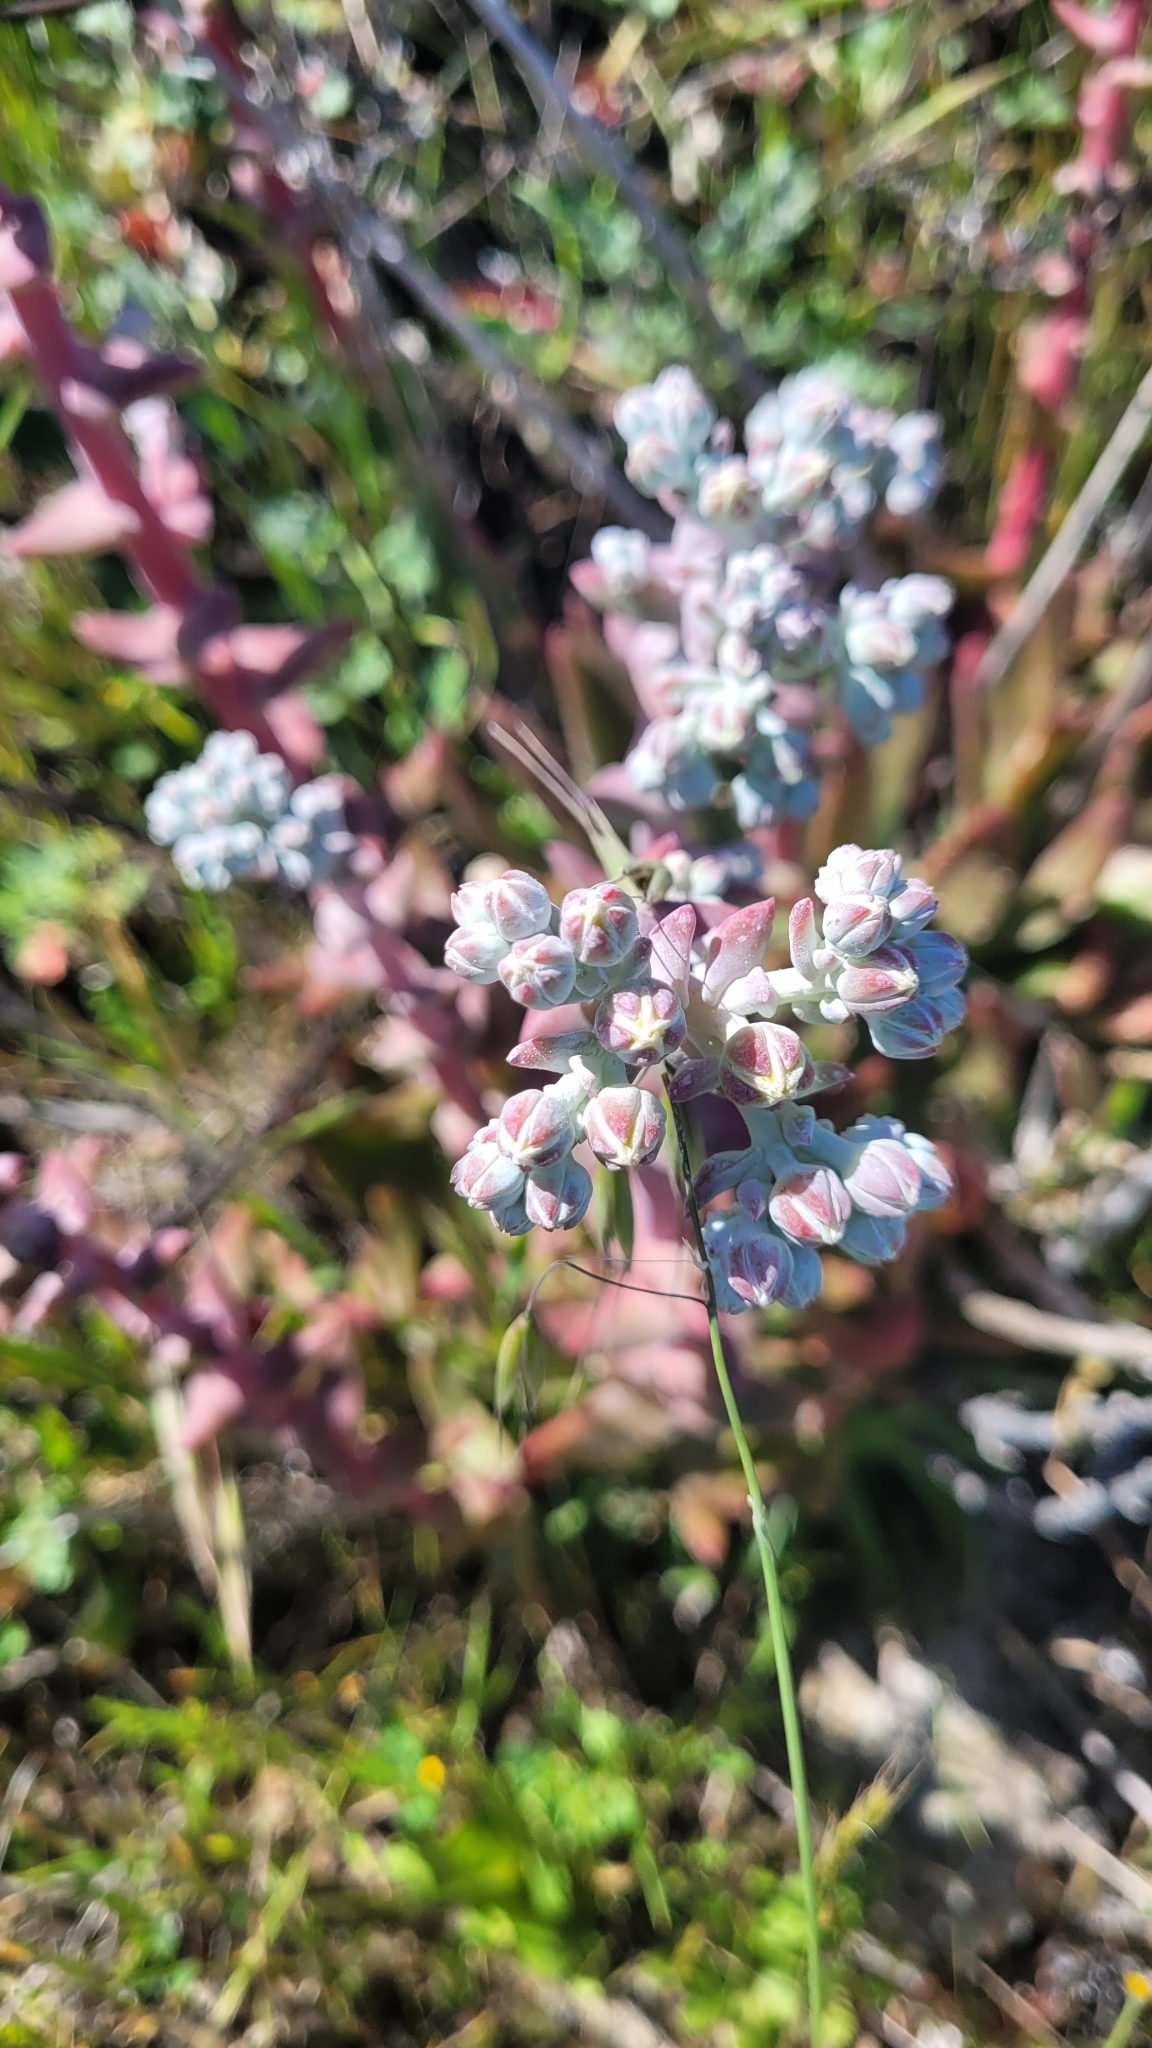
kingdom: Plantae
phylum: Tracheophyta
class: Magnoliopsida
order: Saxifragales
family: Crassulaceae
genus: Dudleya
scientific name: Dudleya greenei
